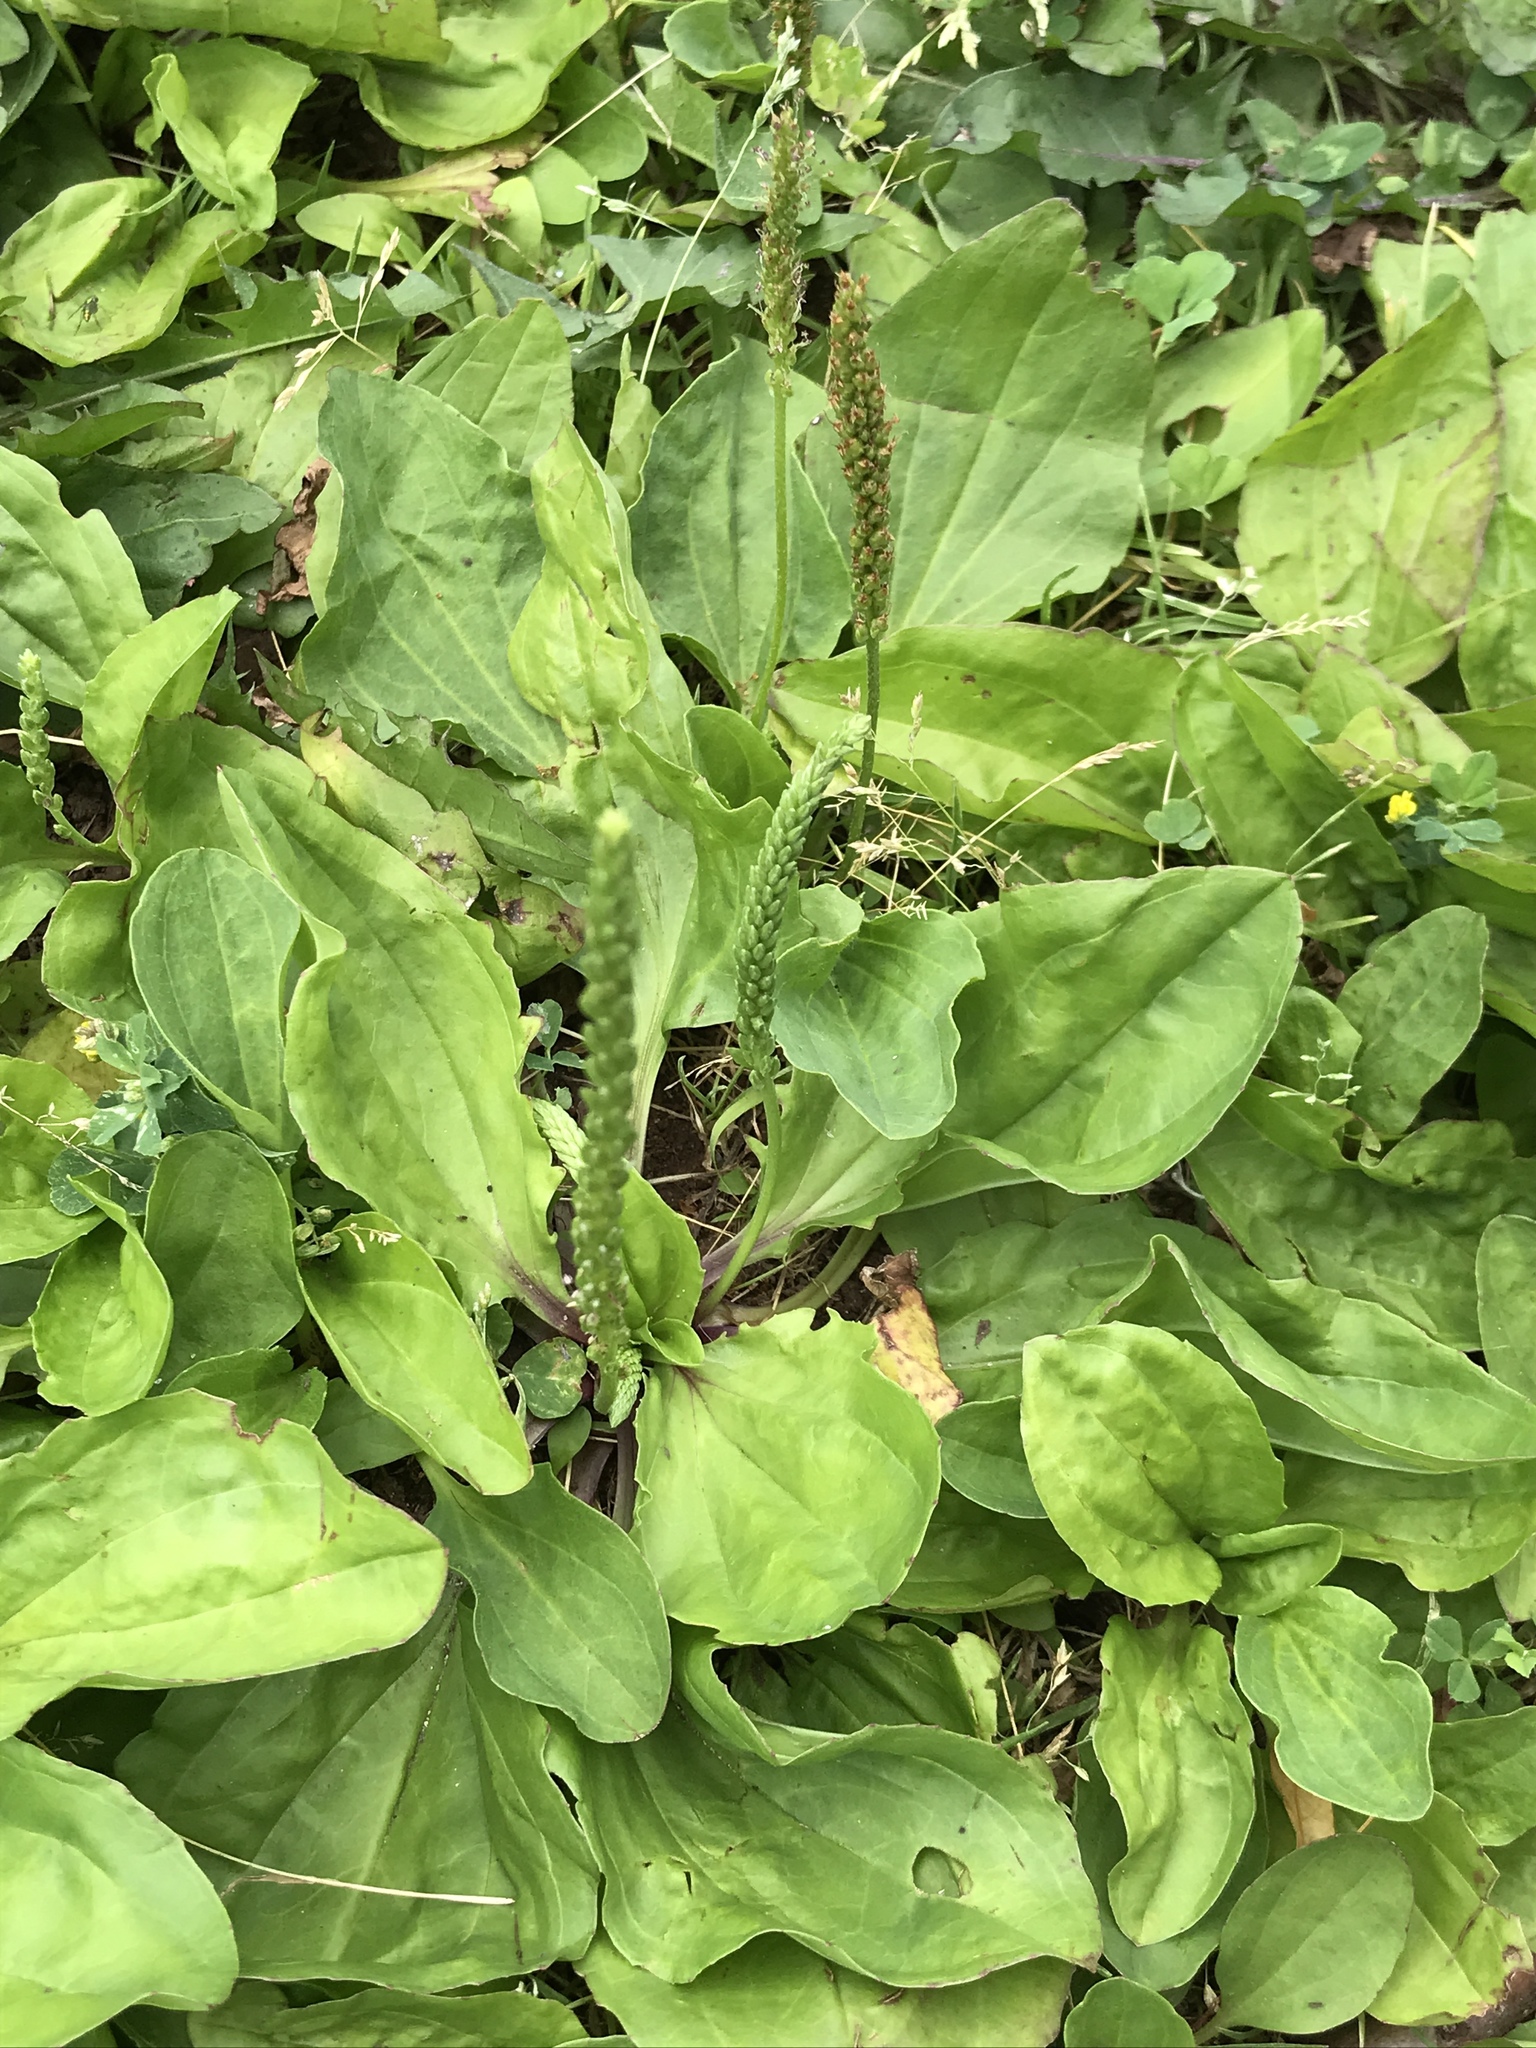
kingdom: Plantae
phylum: Tracheophyta
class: Magnoliopsida
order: Lamiales
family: Plantaginaceae
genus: Plantago
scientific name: Plantago rugelii
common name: American plantain
